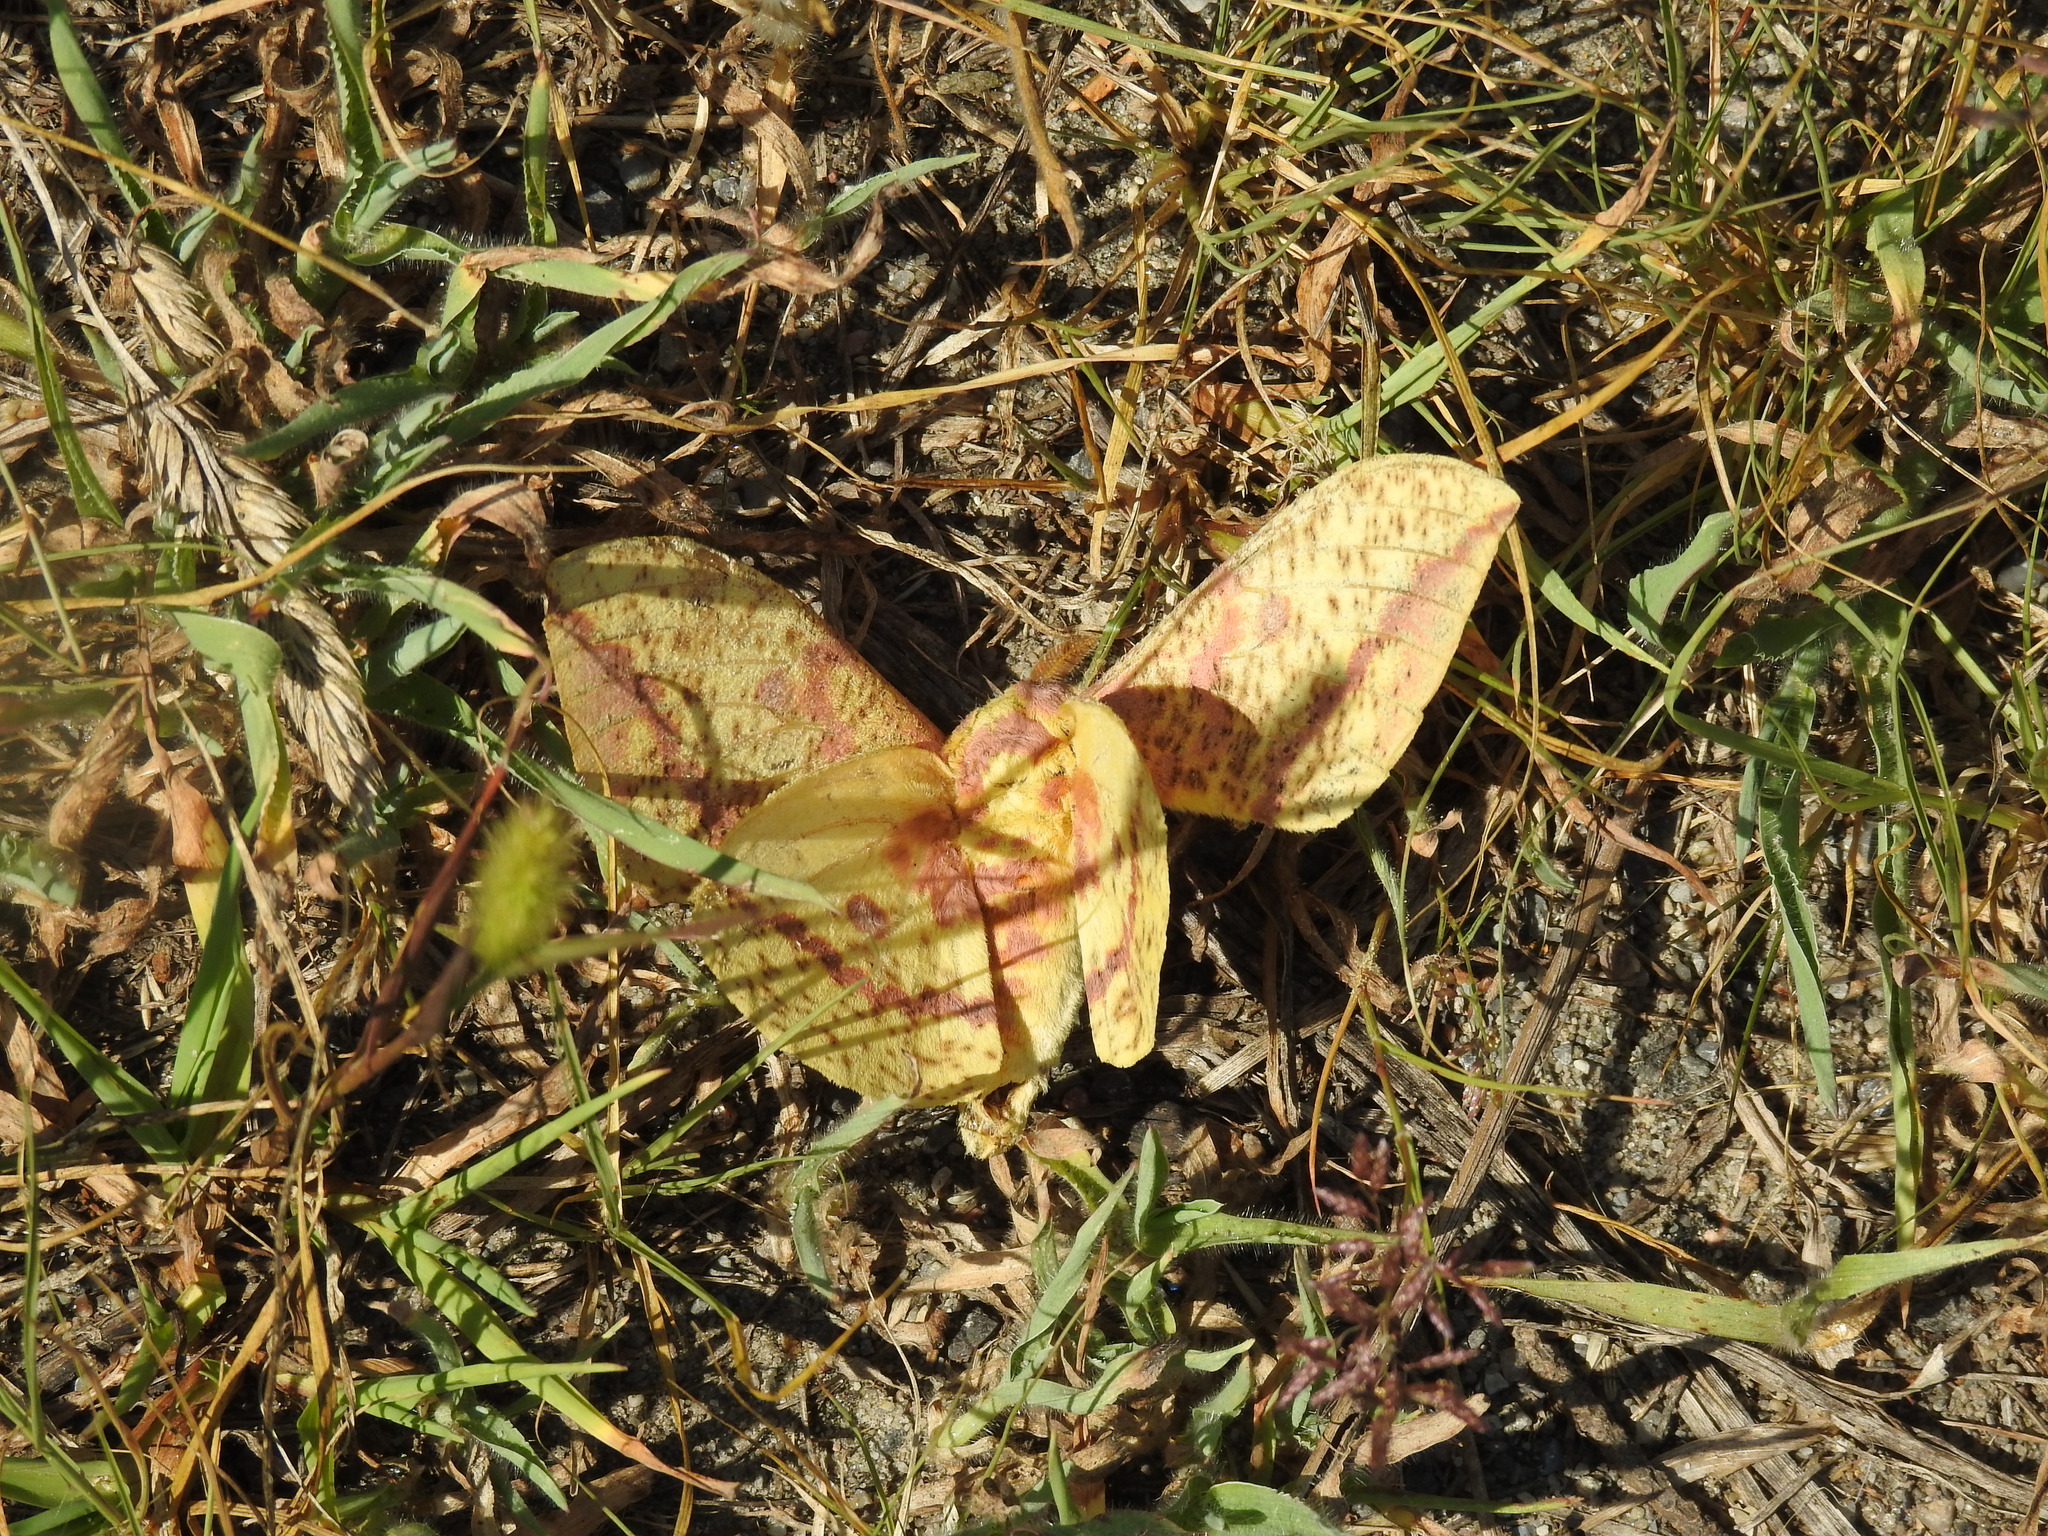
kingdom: Animalia
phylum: Arthropoda
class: Insecta
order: Lepidoptera
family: Saturniidae
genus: Eacles
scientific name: Eacles
